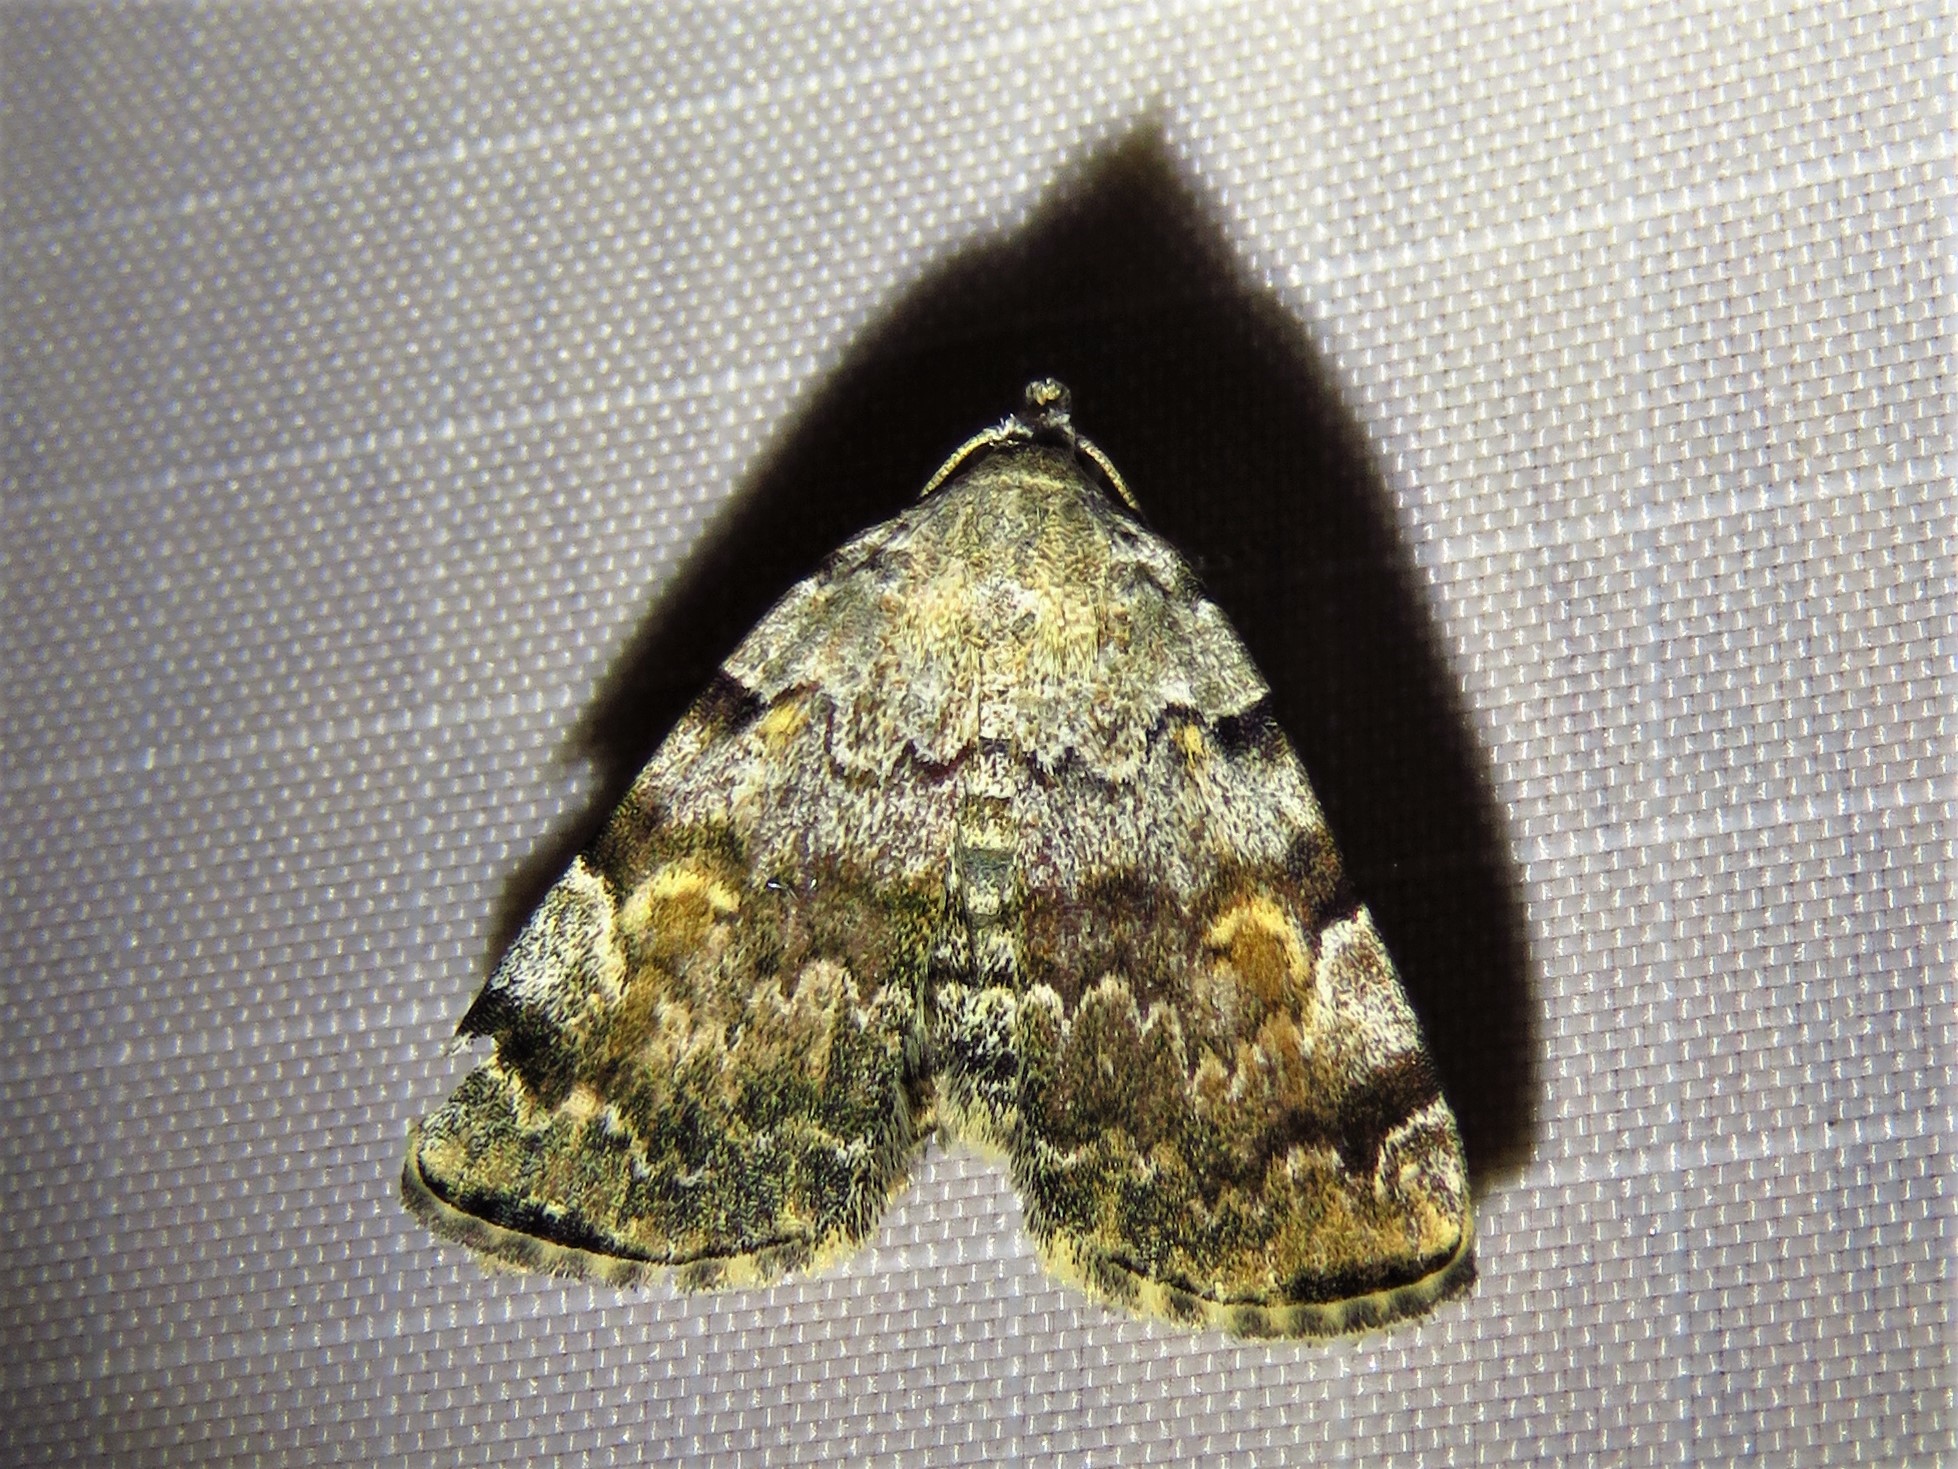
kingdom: Animalia
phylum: Arthropoda
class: Insecta
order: Lepidoptera
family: Erebidae
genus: Idia
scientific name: Idia americalis
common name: American idia moth
